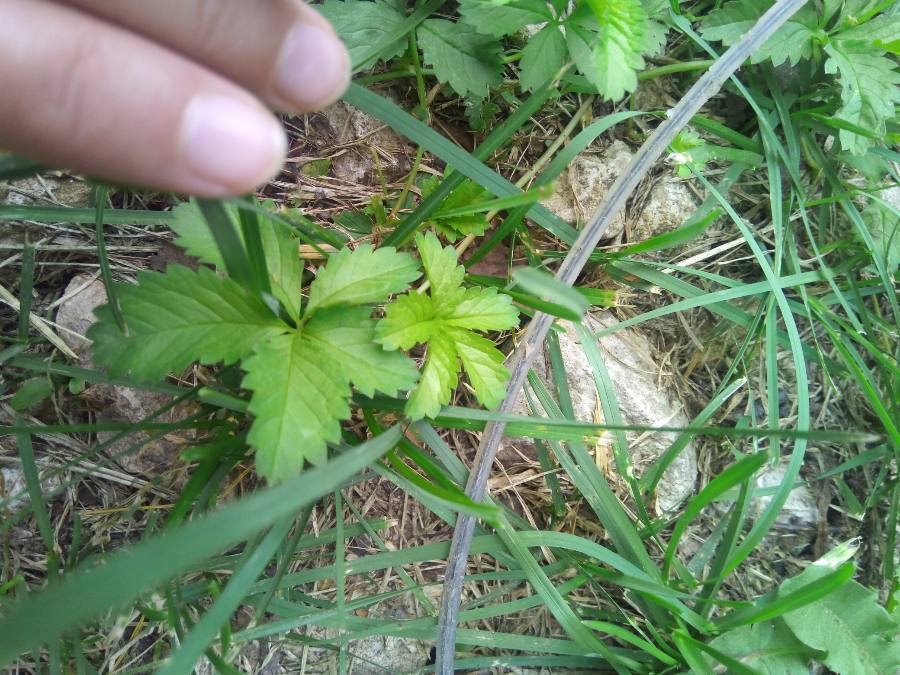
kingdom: Plantae
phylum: Tracheophyta
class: Magnoliopsida
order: Rosales
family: Rosaceae
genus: Potentilla
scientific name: Potentilla reptans
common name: Creeping cinquefoil
